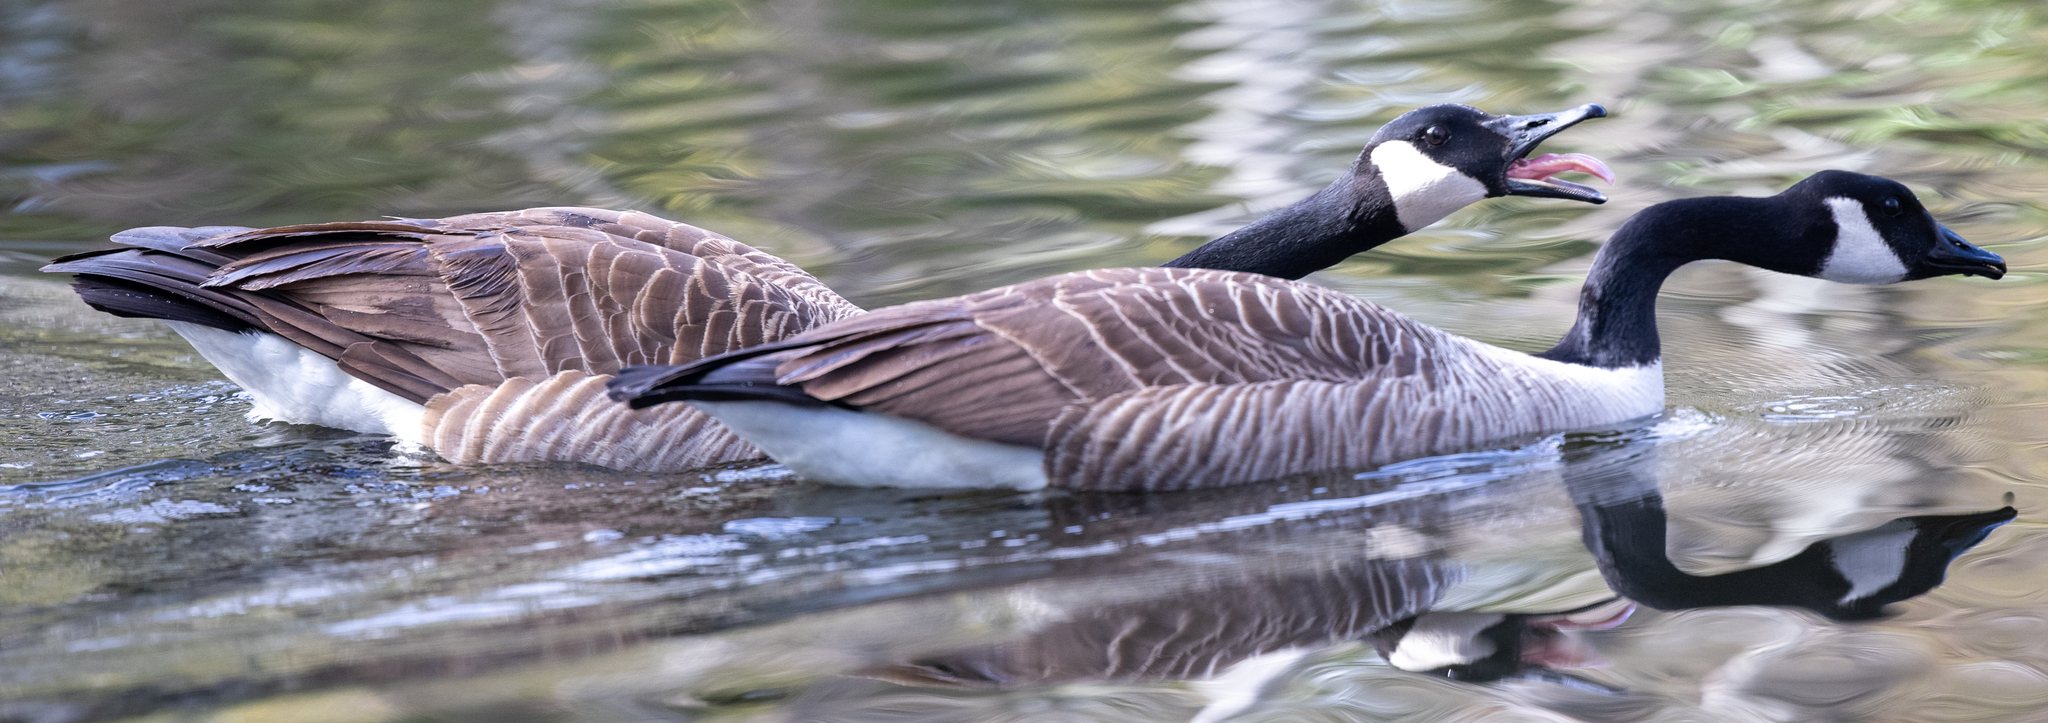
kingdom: Animalia
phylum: Chordata
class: Aves
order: Anseriformes
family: Anatidae
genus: Branta
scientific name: Branta canadensis
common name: Canada goose
